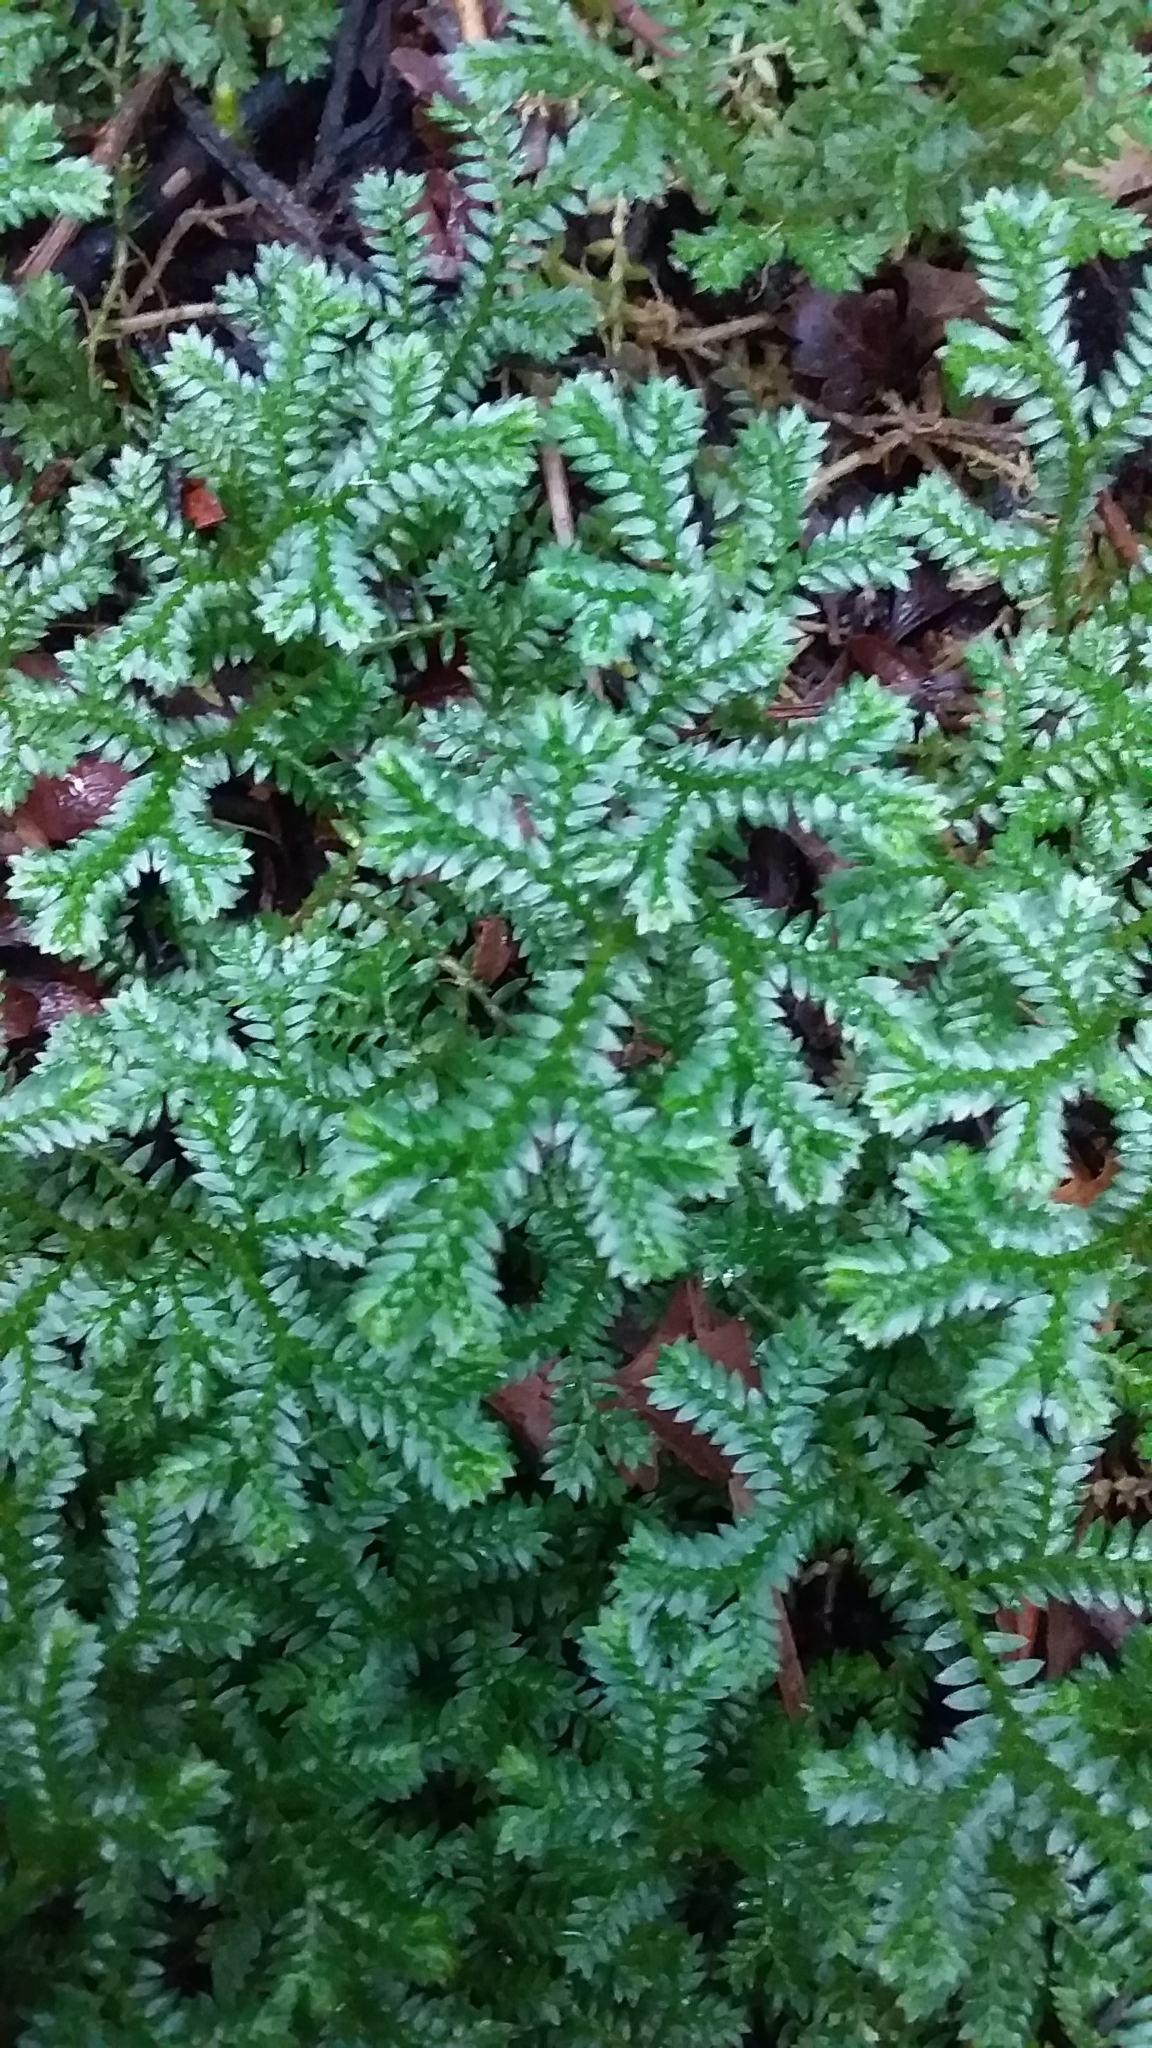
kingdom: Plantae
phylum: Tracheophyta
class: Lycopodiopsida
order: Selaginellales
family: Selaginellaceae
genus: Selaginella
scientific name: Selaginella kraussiana
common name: Krauss' spikemoss
